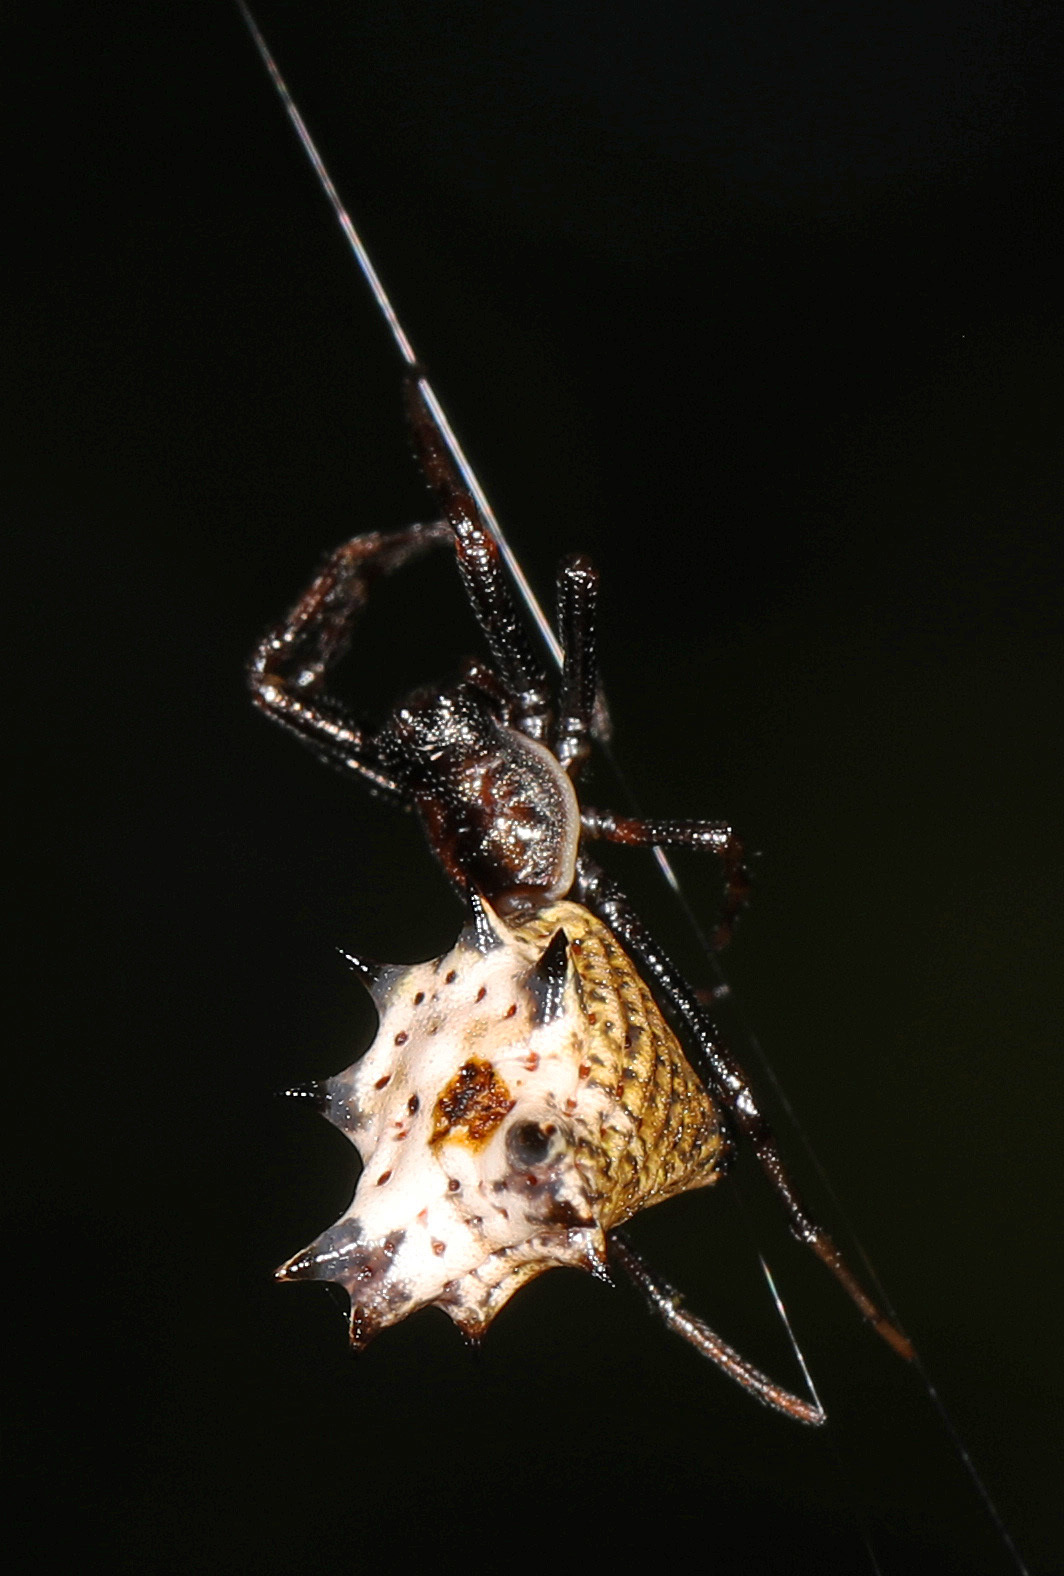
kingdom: Animalia
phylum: Arthropoda
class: Arachnida
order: Araneae
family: Araneidae
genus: Micrathena
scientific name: Micrathena gracilis
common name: Orb weavers
